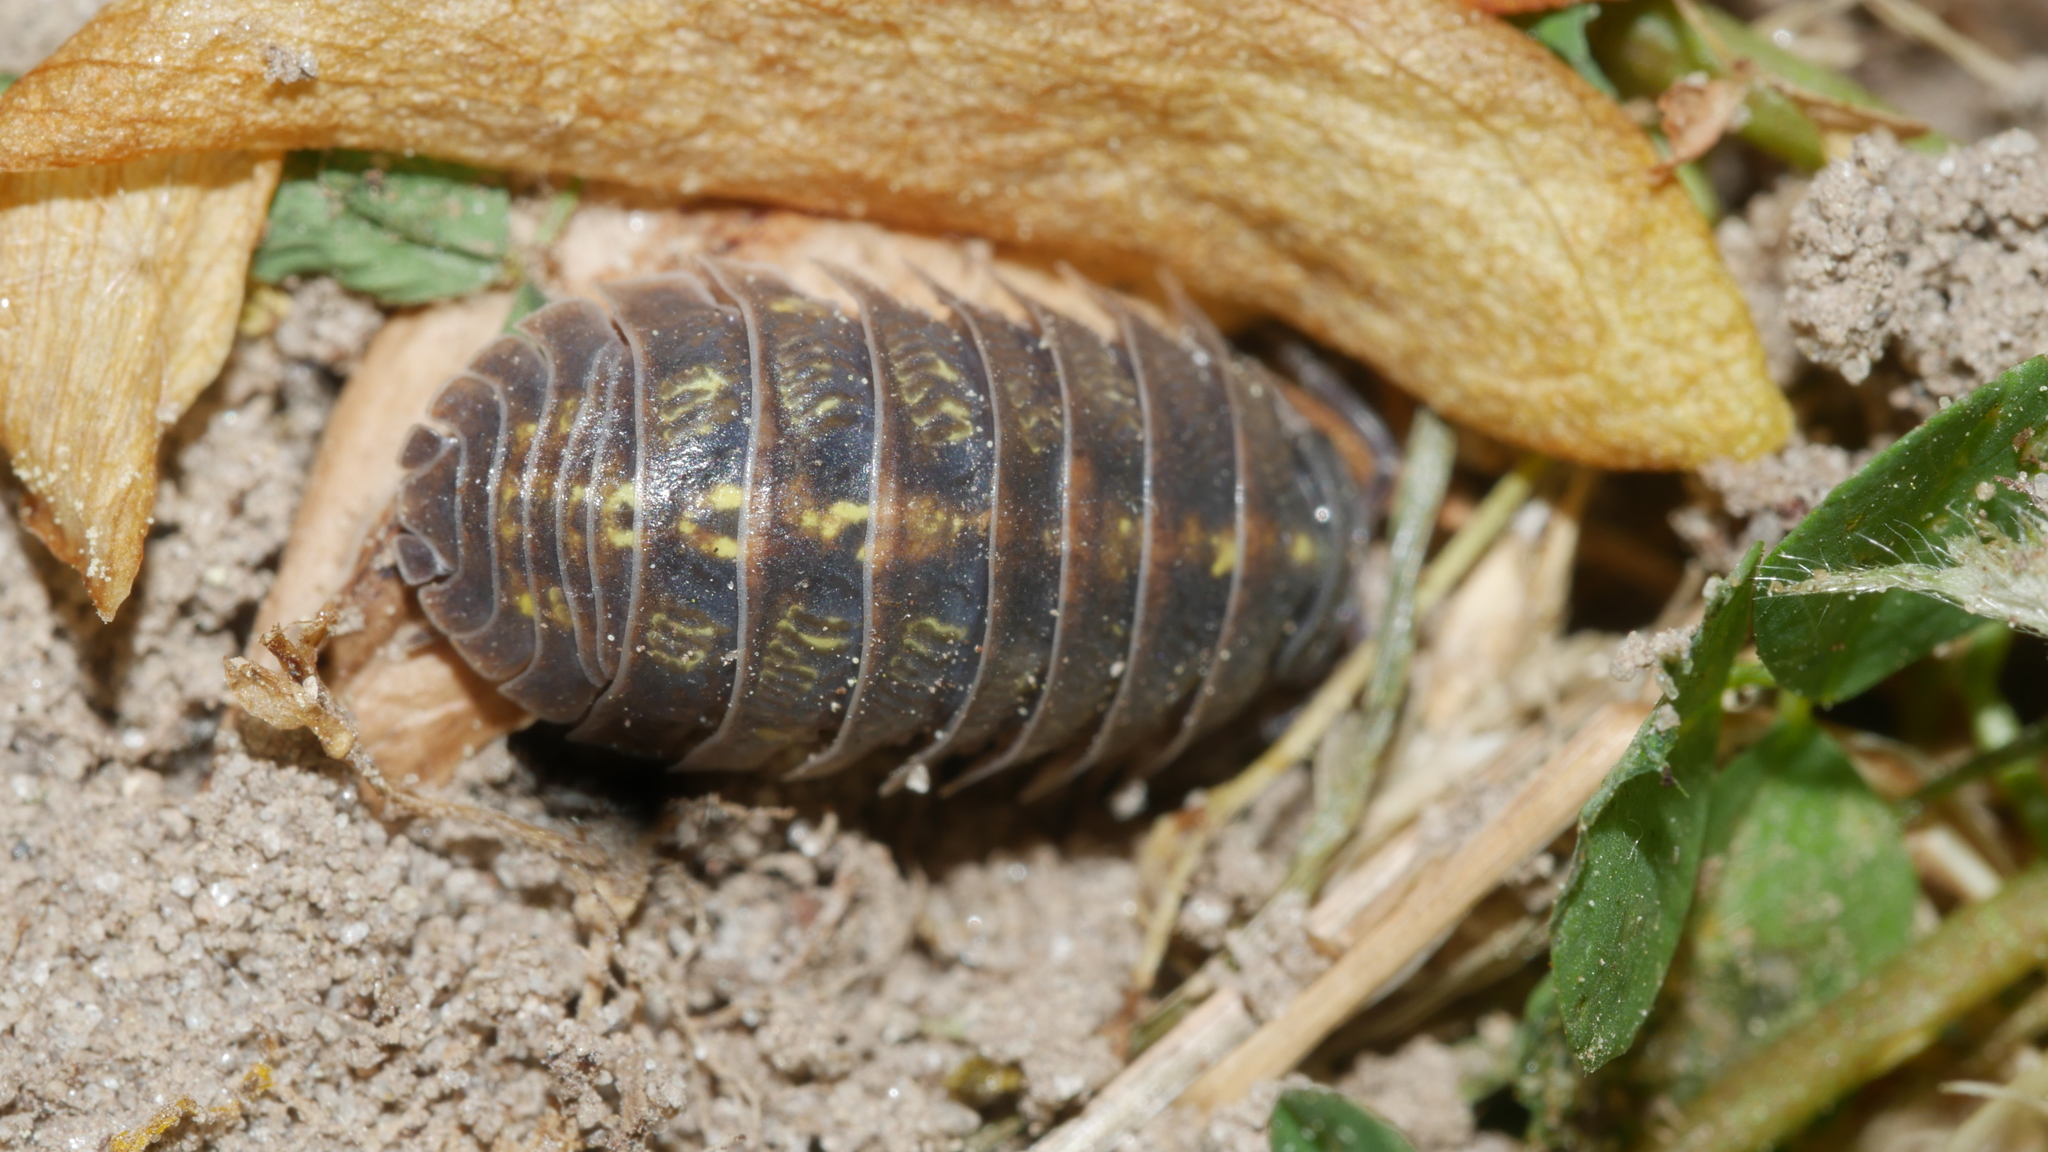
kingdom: Animalia
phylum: Arthropoda
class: Malacostraca
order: Isopoda
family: Armadillidiidae
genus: Armadillidium
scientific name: Armadillidium vulgare
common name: Common pill woodlouse
